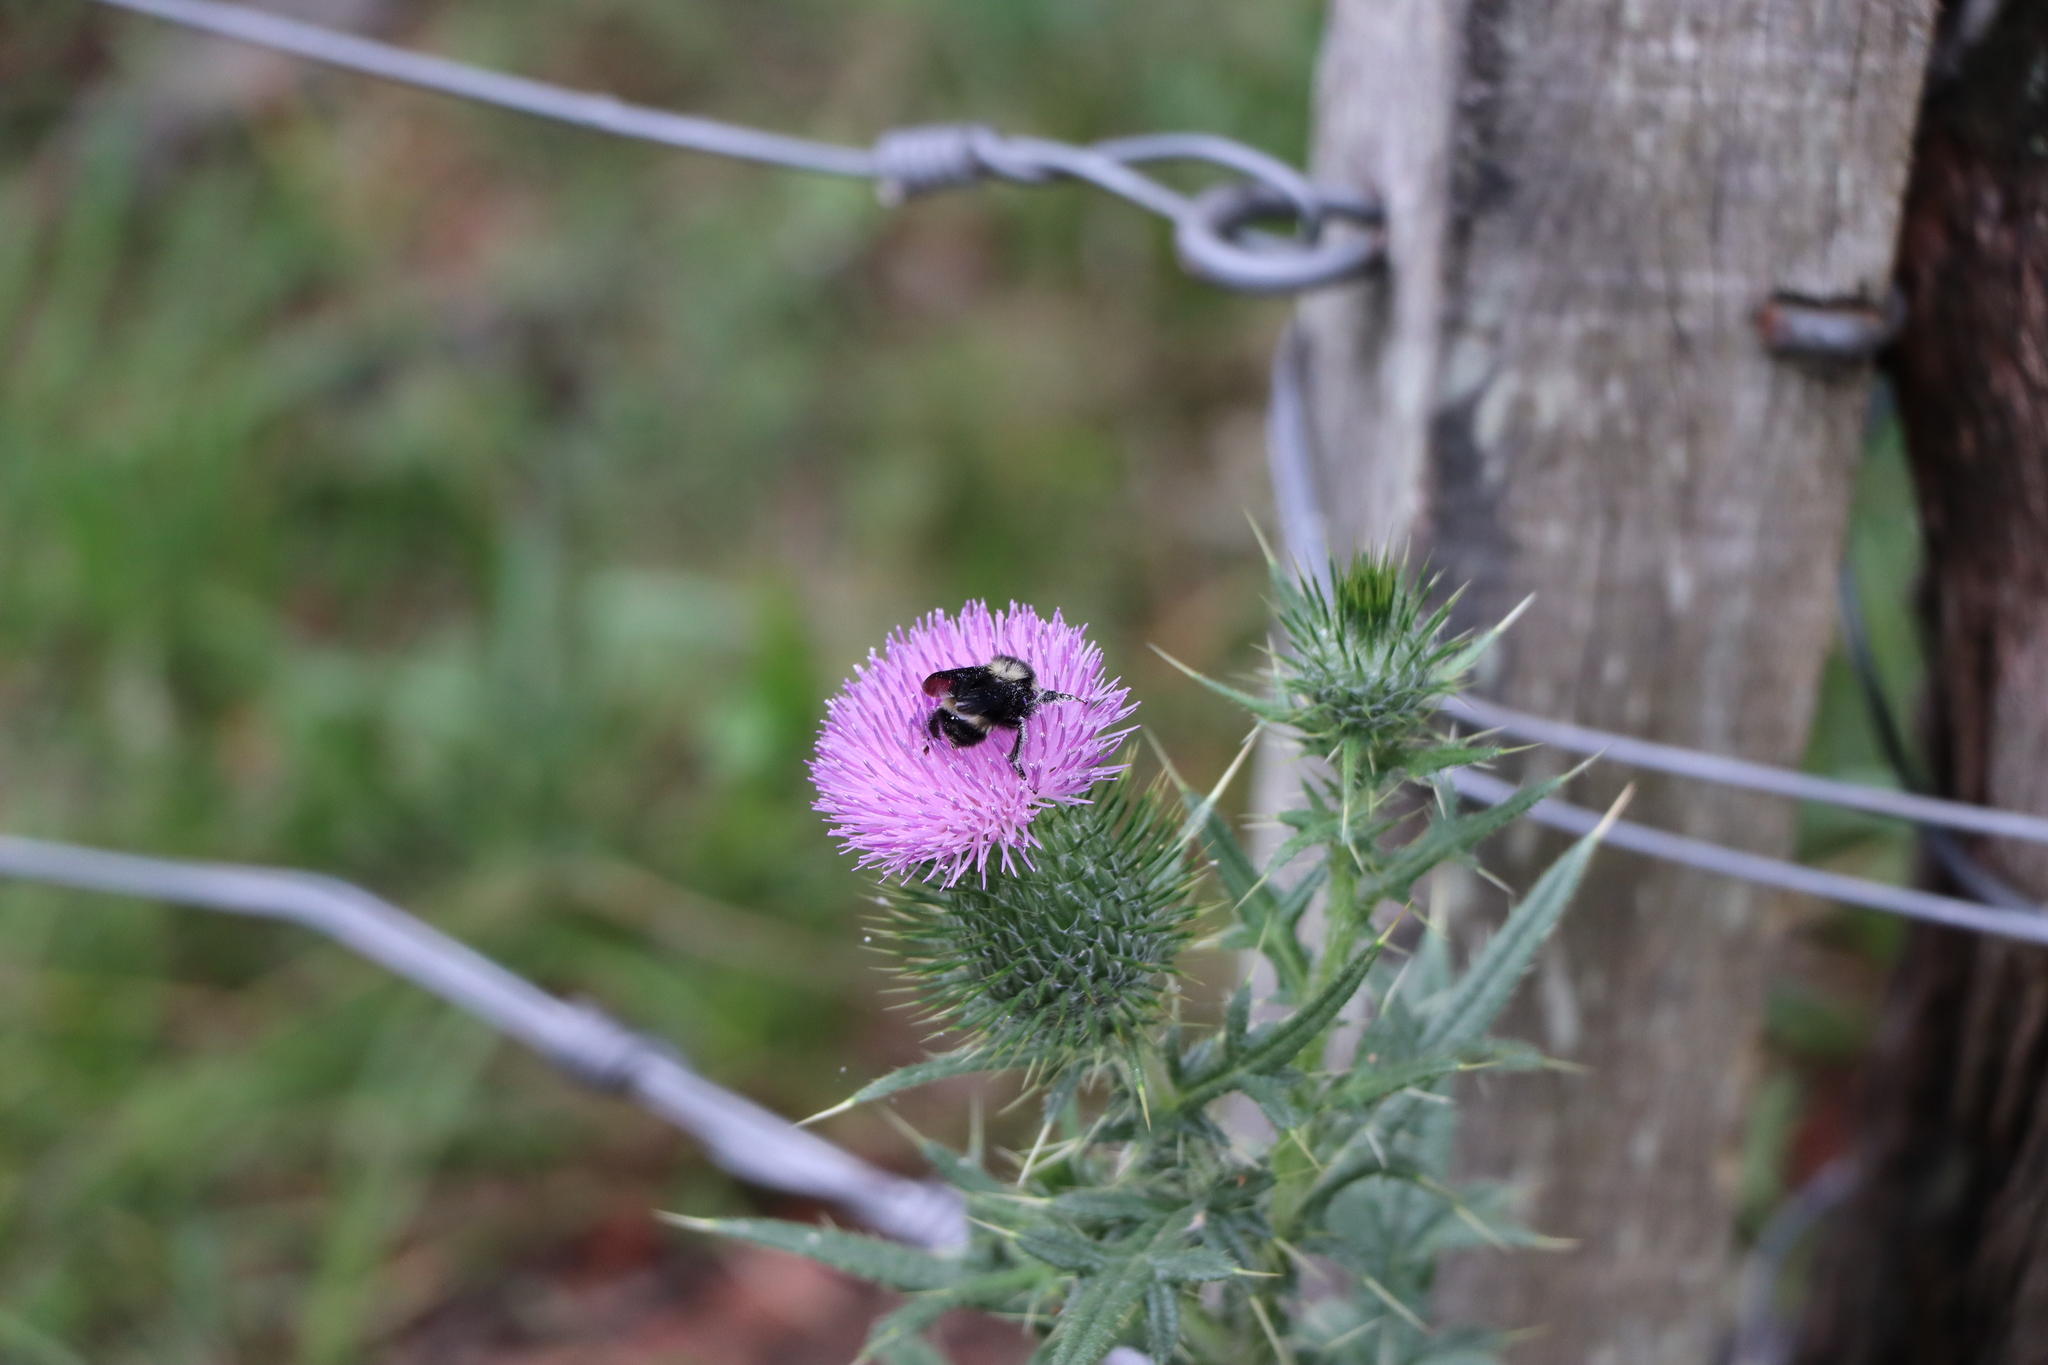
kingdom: Animalia
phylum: Arthropoda
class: Insecta
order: Hymenoptera
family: Apidae
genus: Bombus
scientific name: Bombus pauloensis
